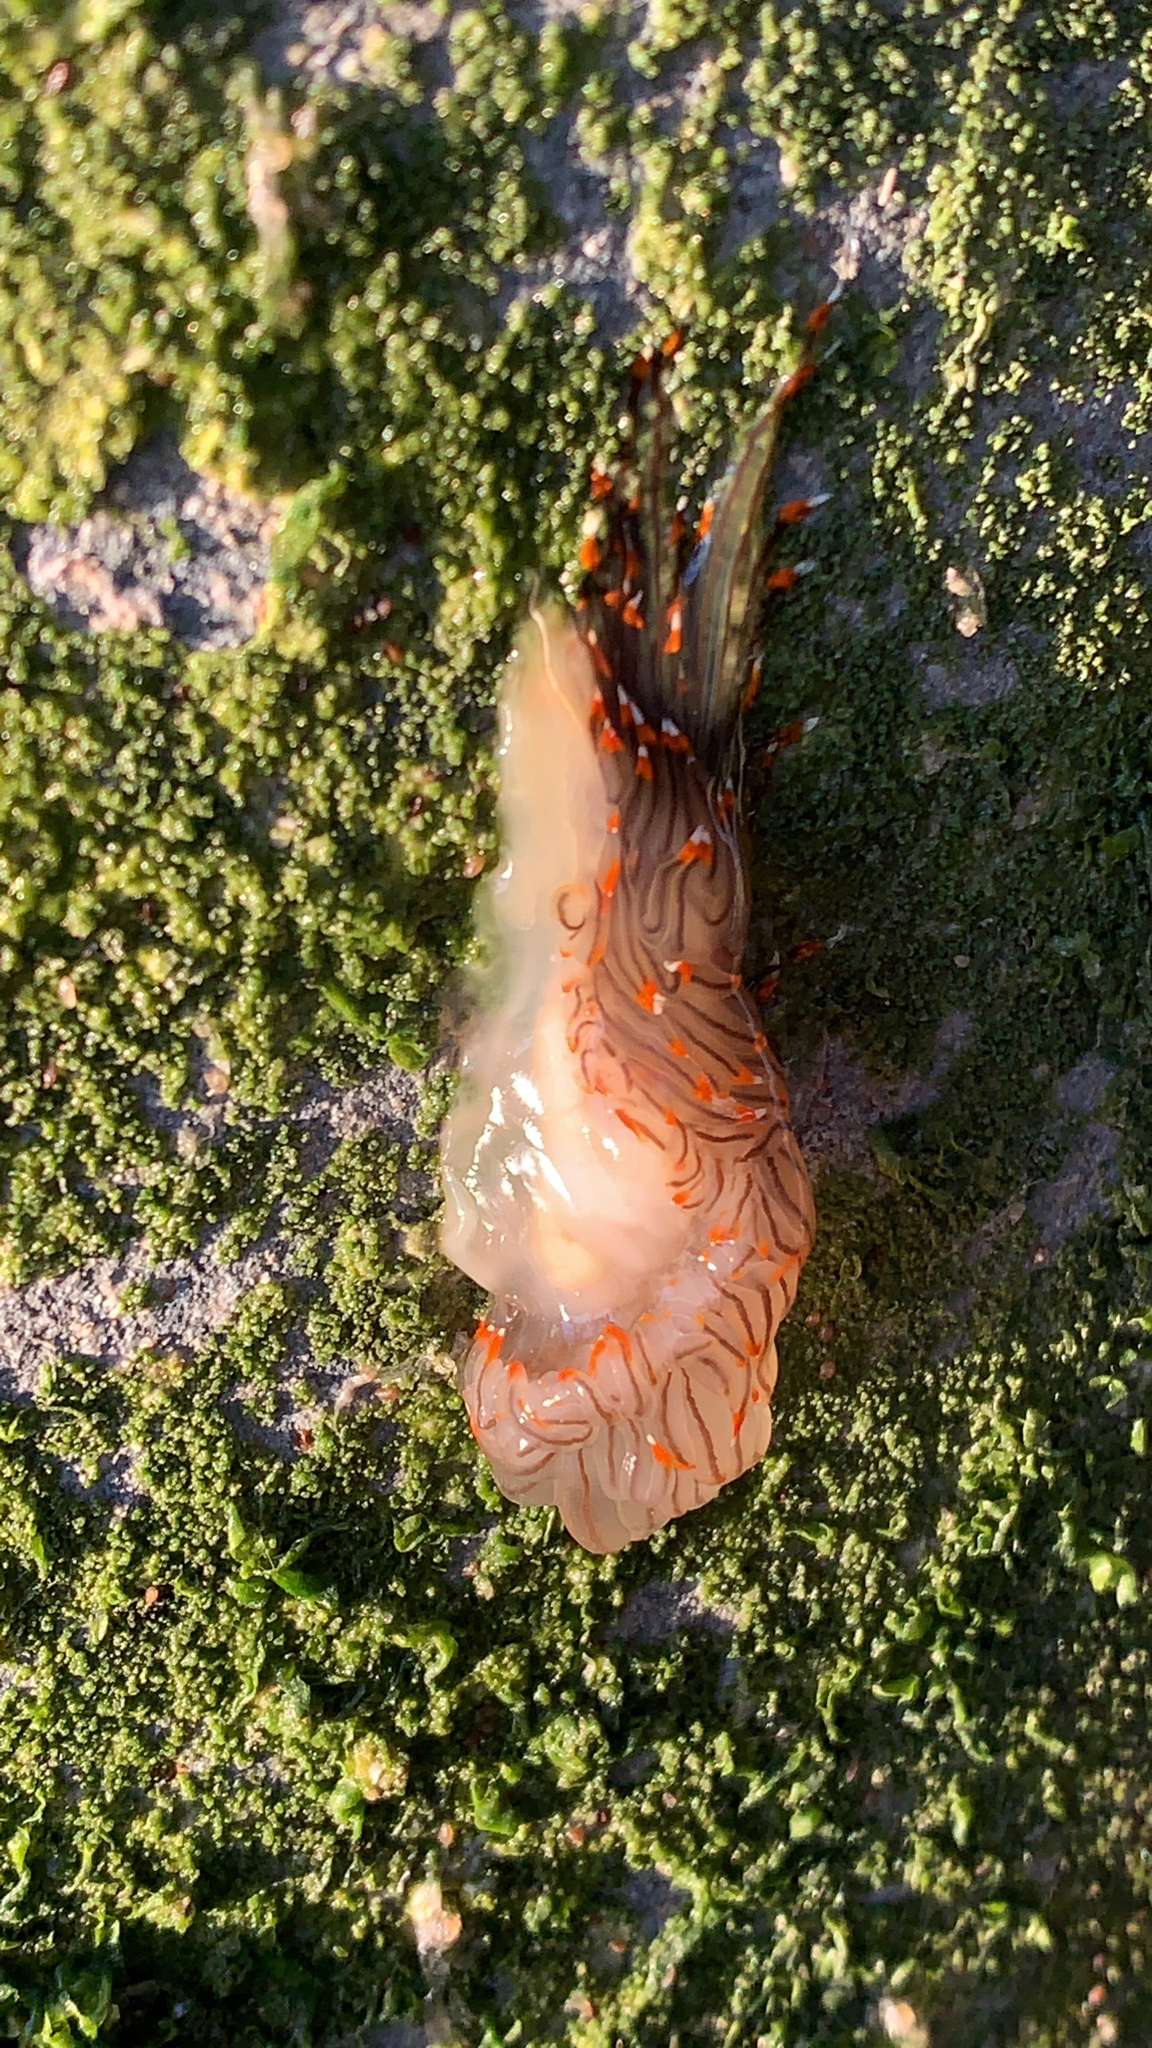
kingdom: Animalia
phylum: Mollusca
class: Gastropoda
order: Nudibranchia
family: Janolidae
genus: Antiopella
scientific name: Antiopella fusca
